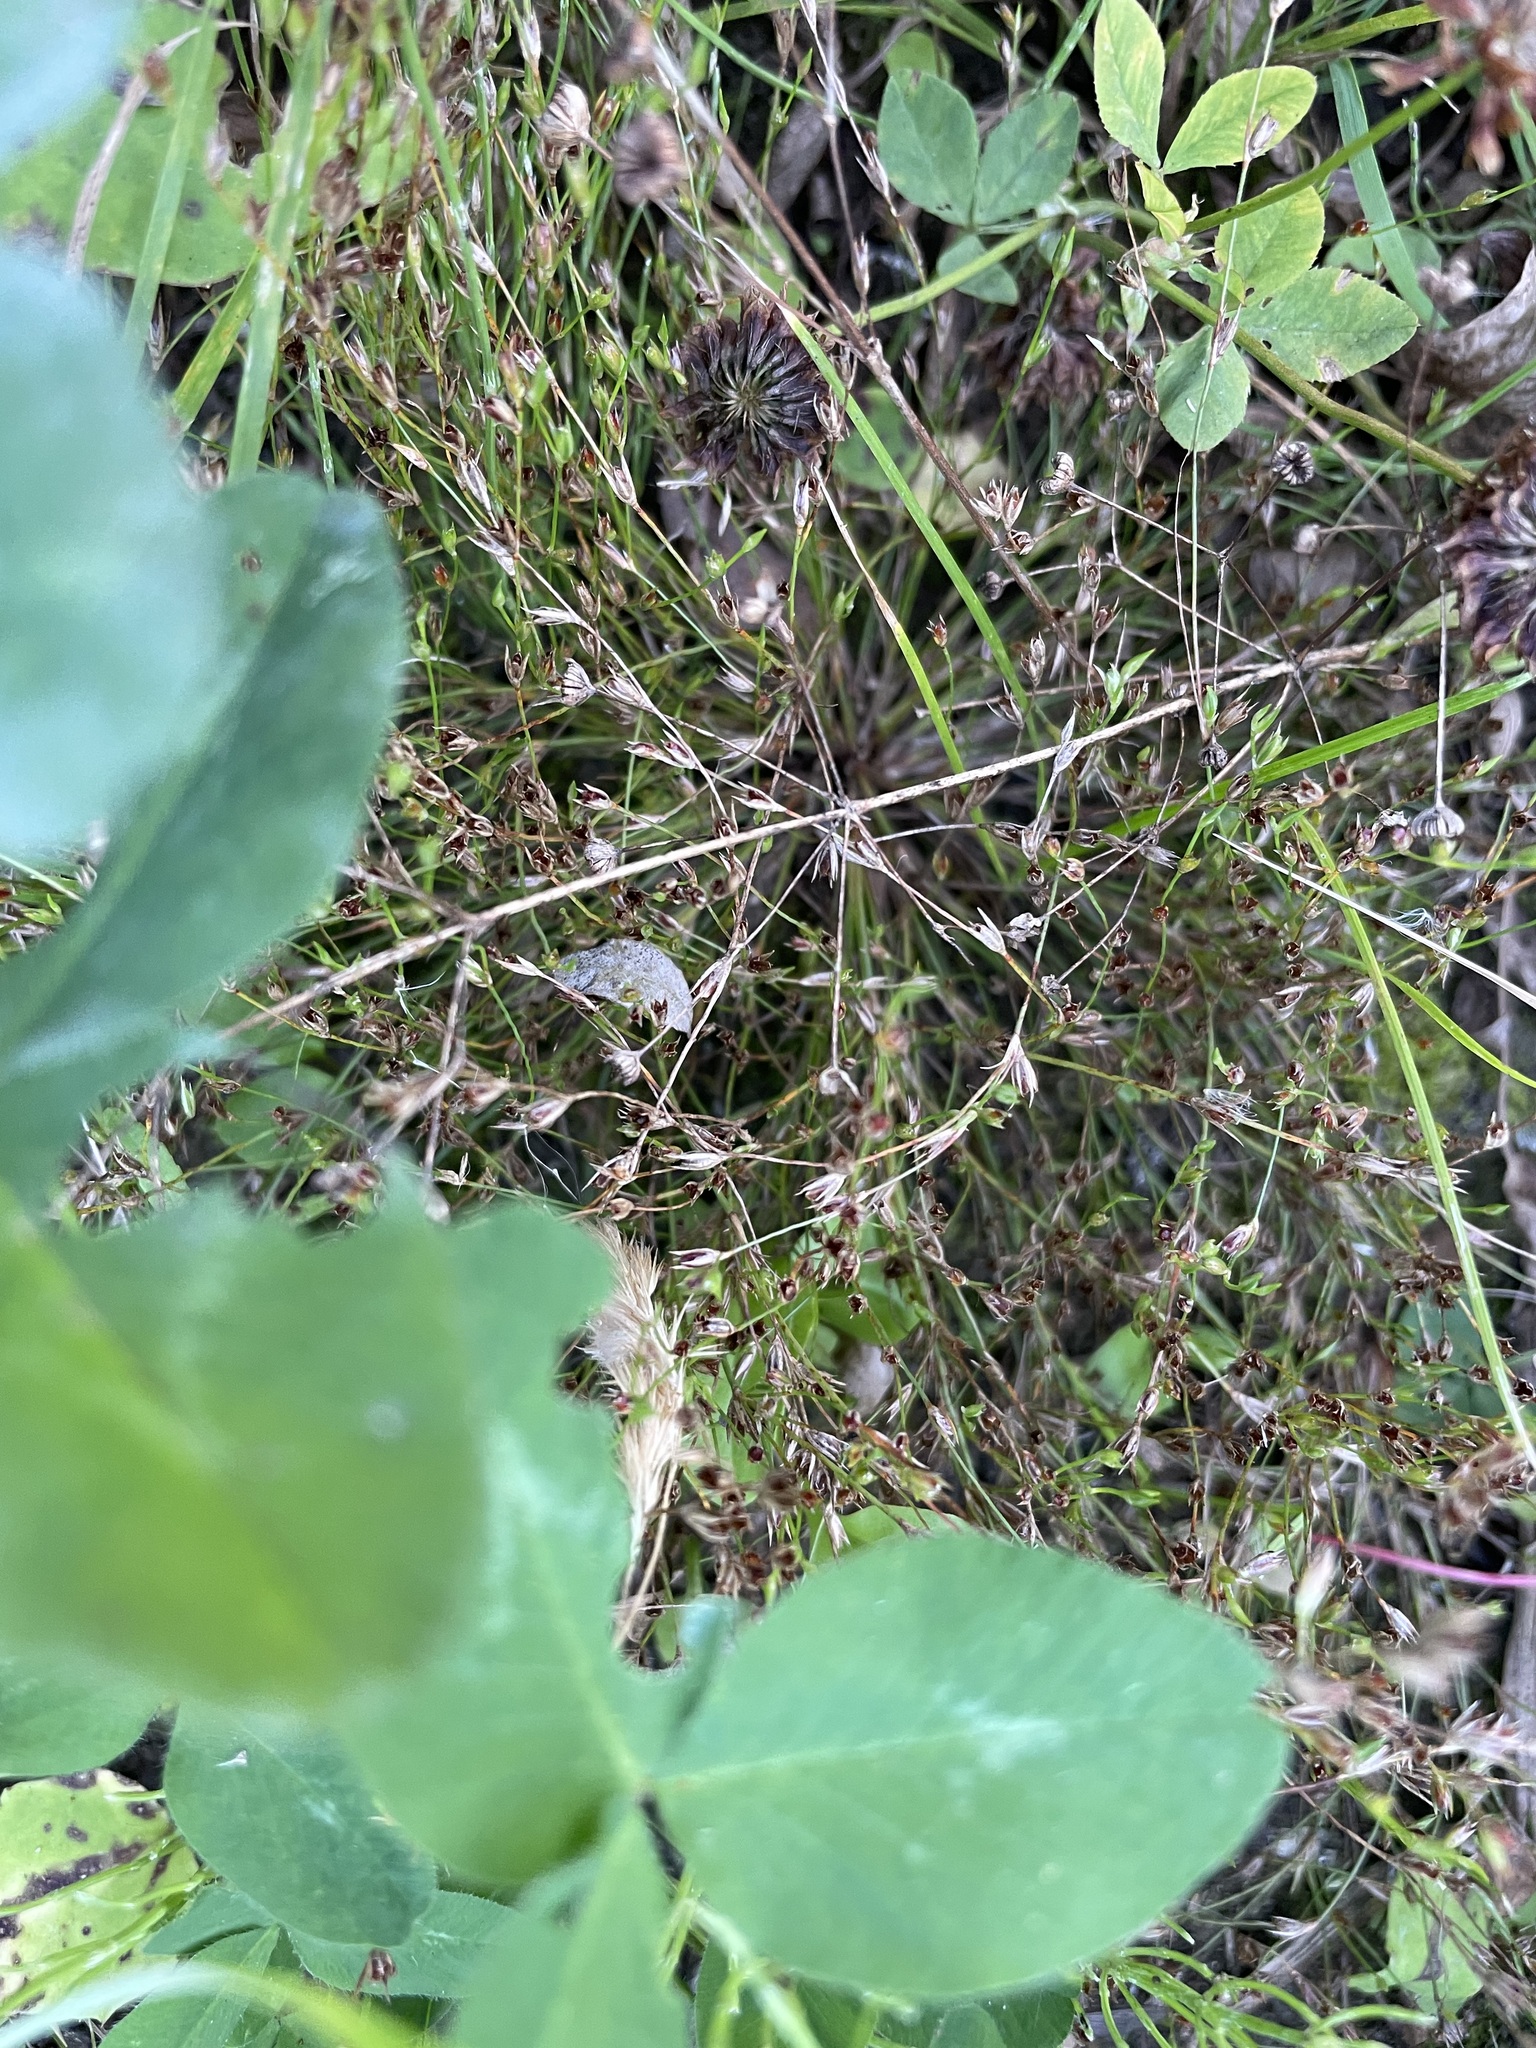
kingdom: Plantae
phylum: Tracheophyta
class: Liliopsida
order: Poales
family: Juncaceae
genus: Juncus
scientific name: Juncus bufonius
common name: Toad rush
